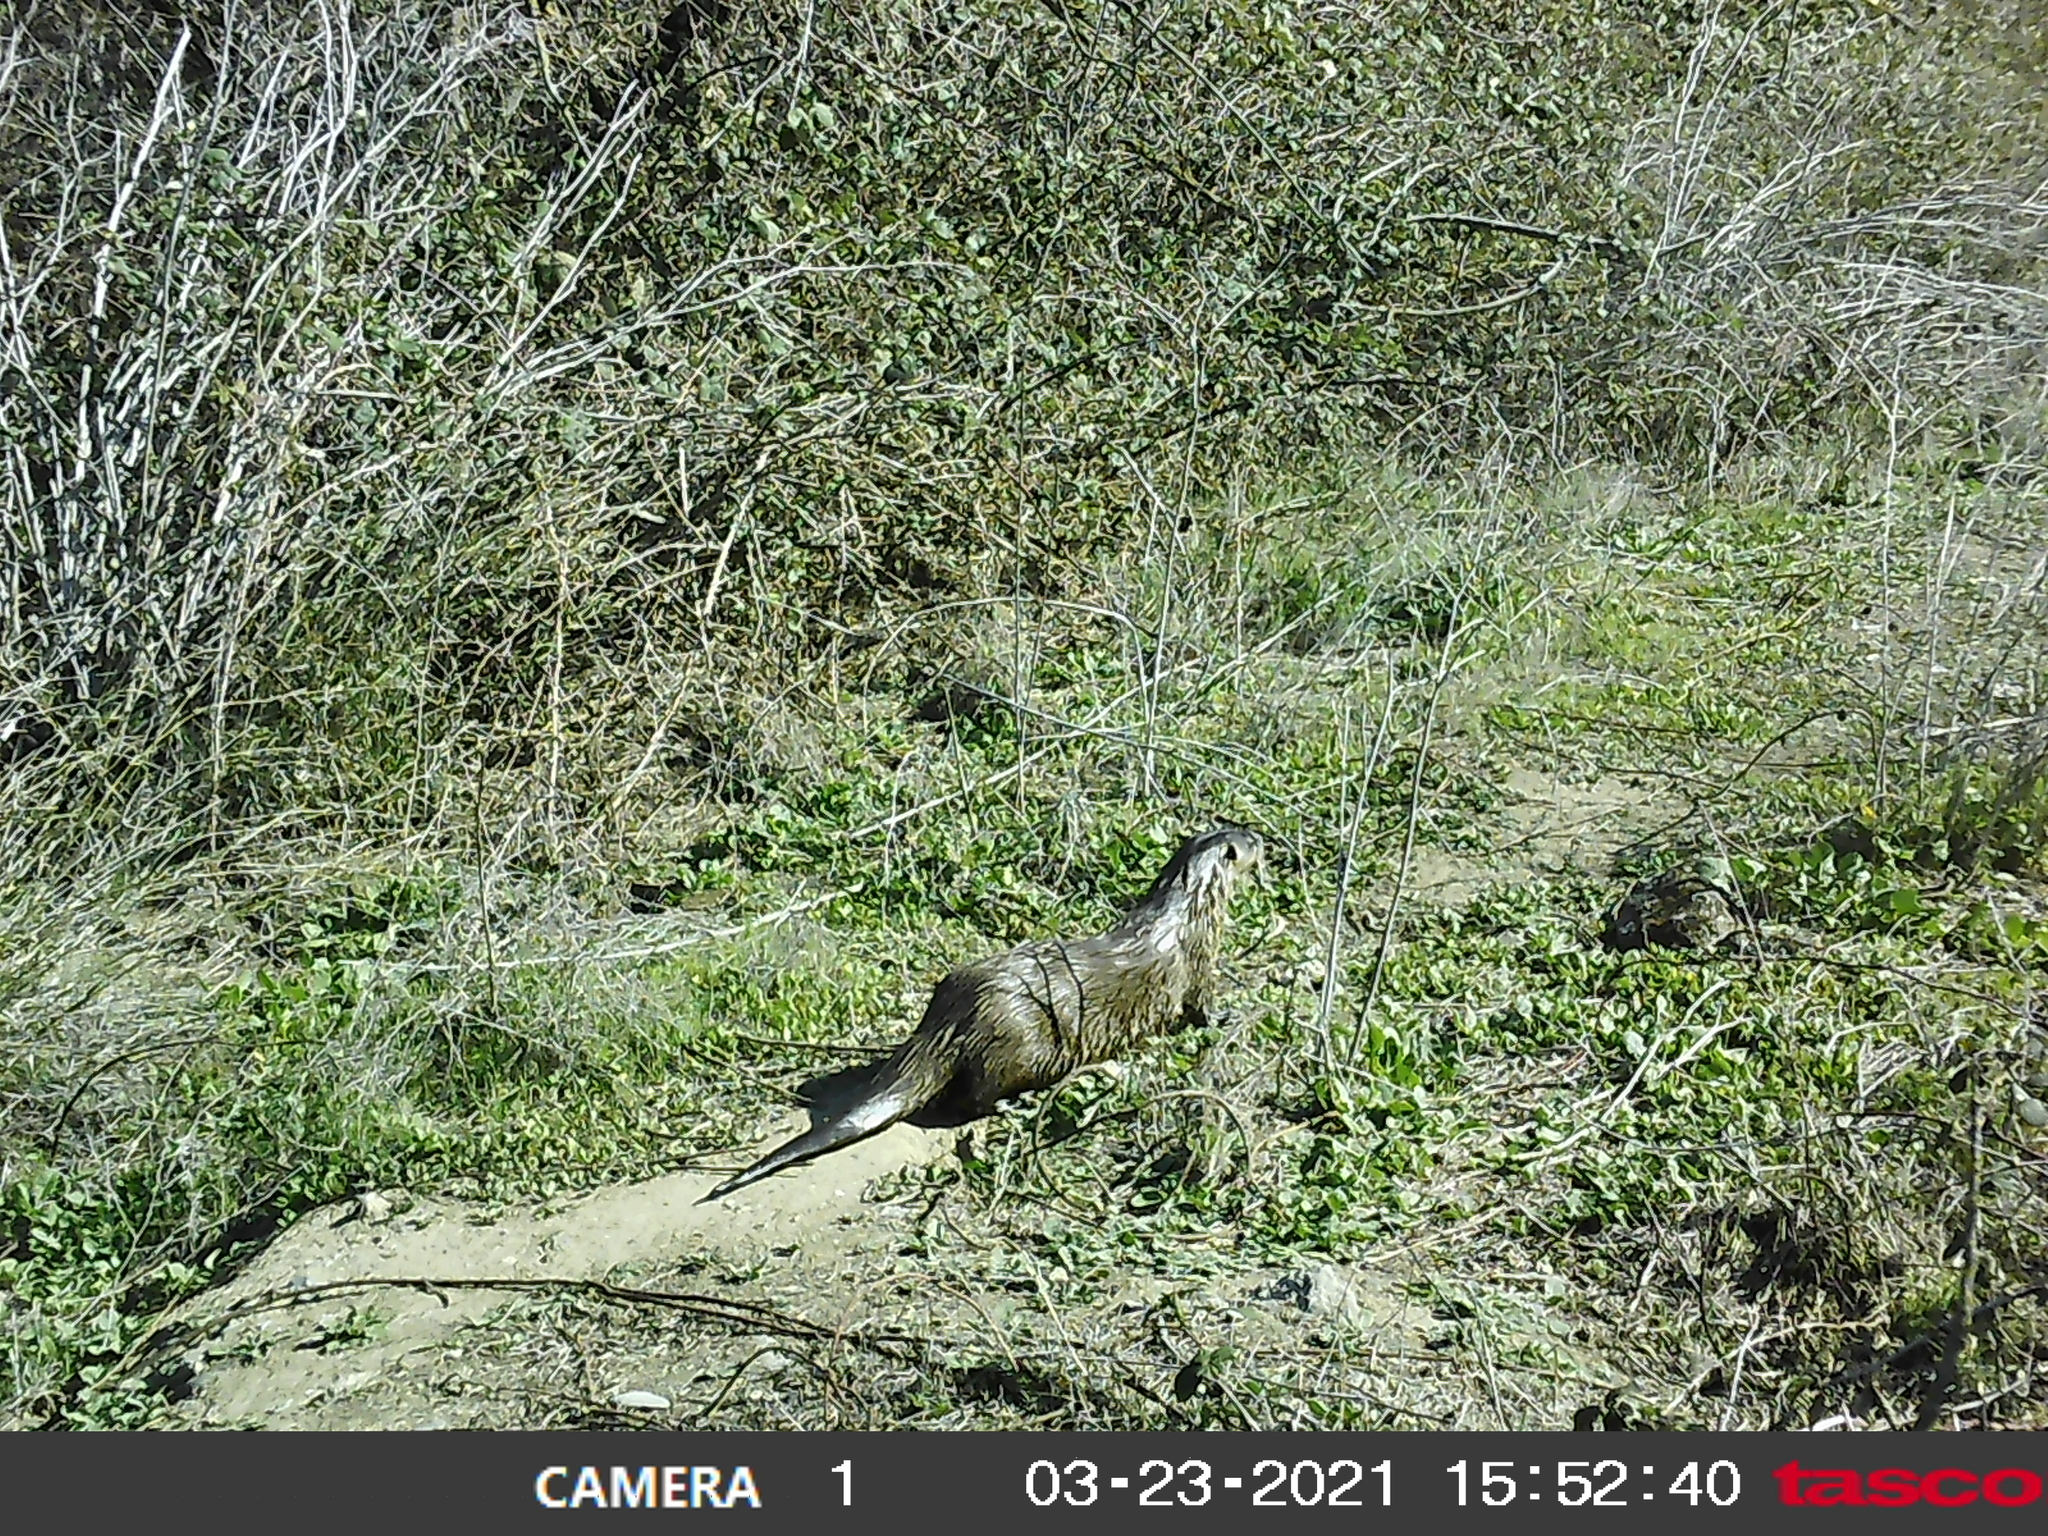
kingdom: Animalia
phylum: Chordata
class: Mammalia
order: Carnivora
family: Mustelidae
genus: Lontra
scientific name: Lontra canadensis
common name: North american river otter
